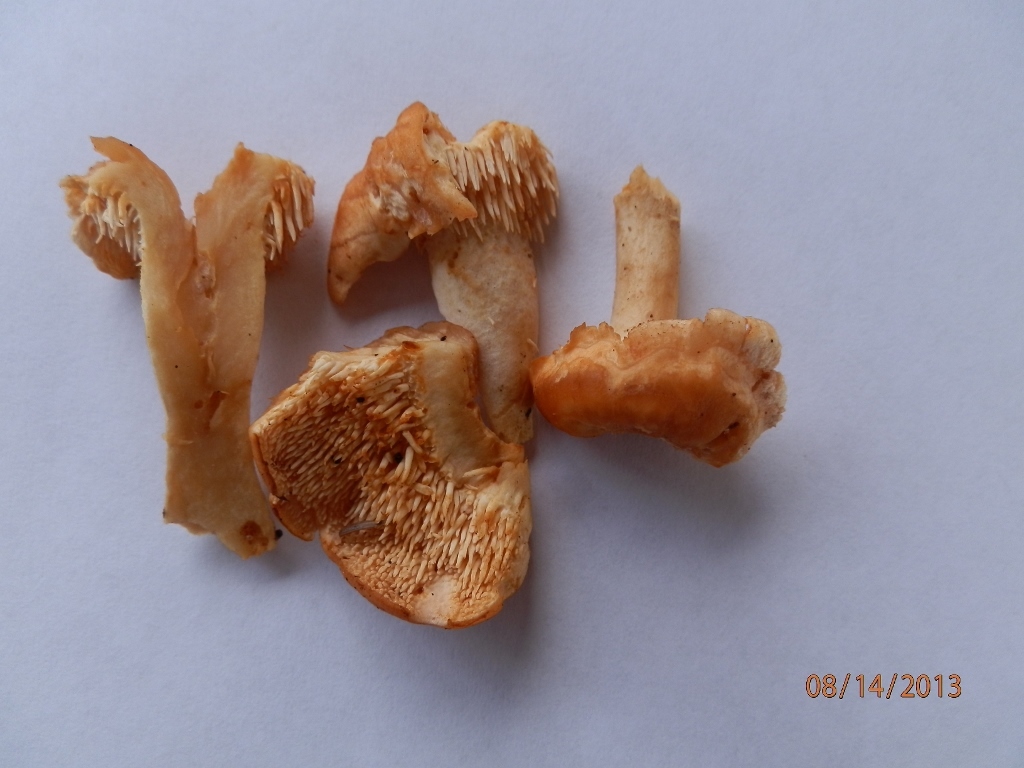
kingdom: Fungi
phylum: Basidiomycota
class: Agaricomycetes
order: Cantharellales
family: Hydnaceae
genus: Hydnum
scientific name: Hydnum umbilicatum
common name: Umbilicate hedgehog
